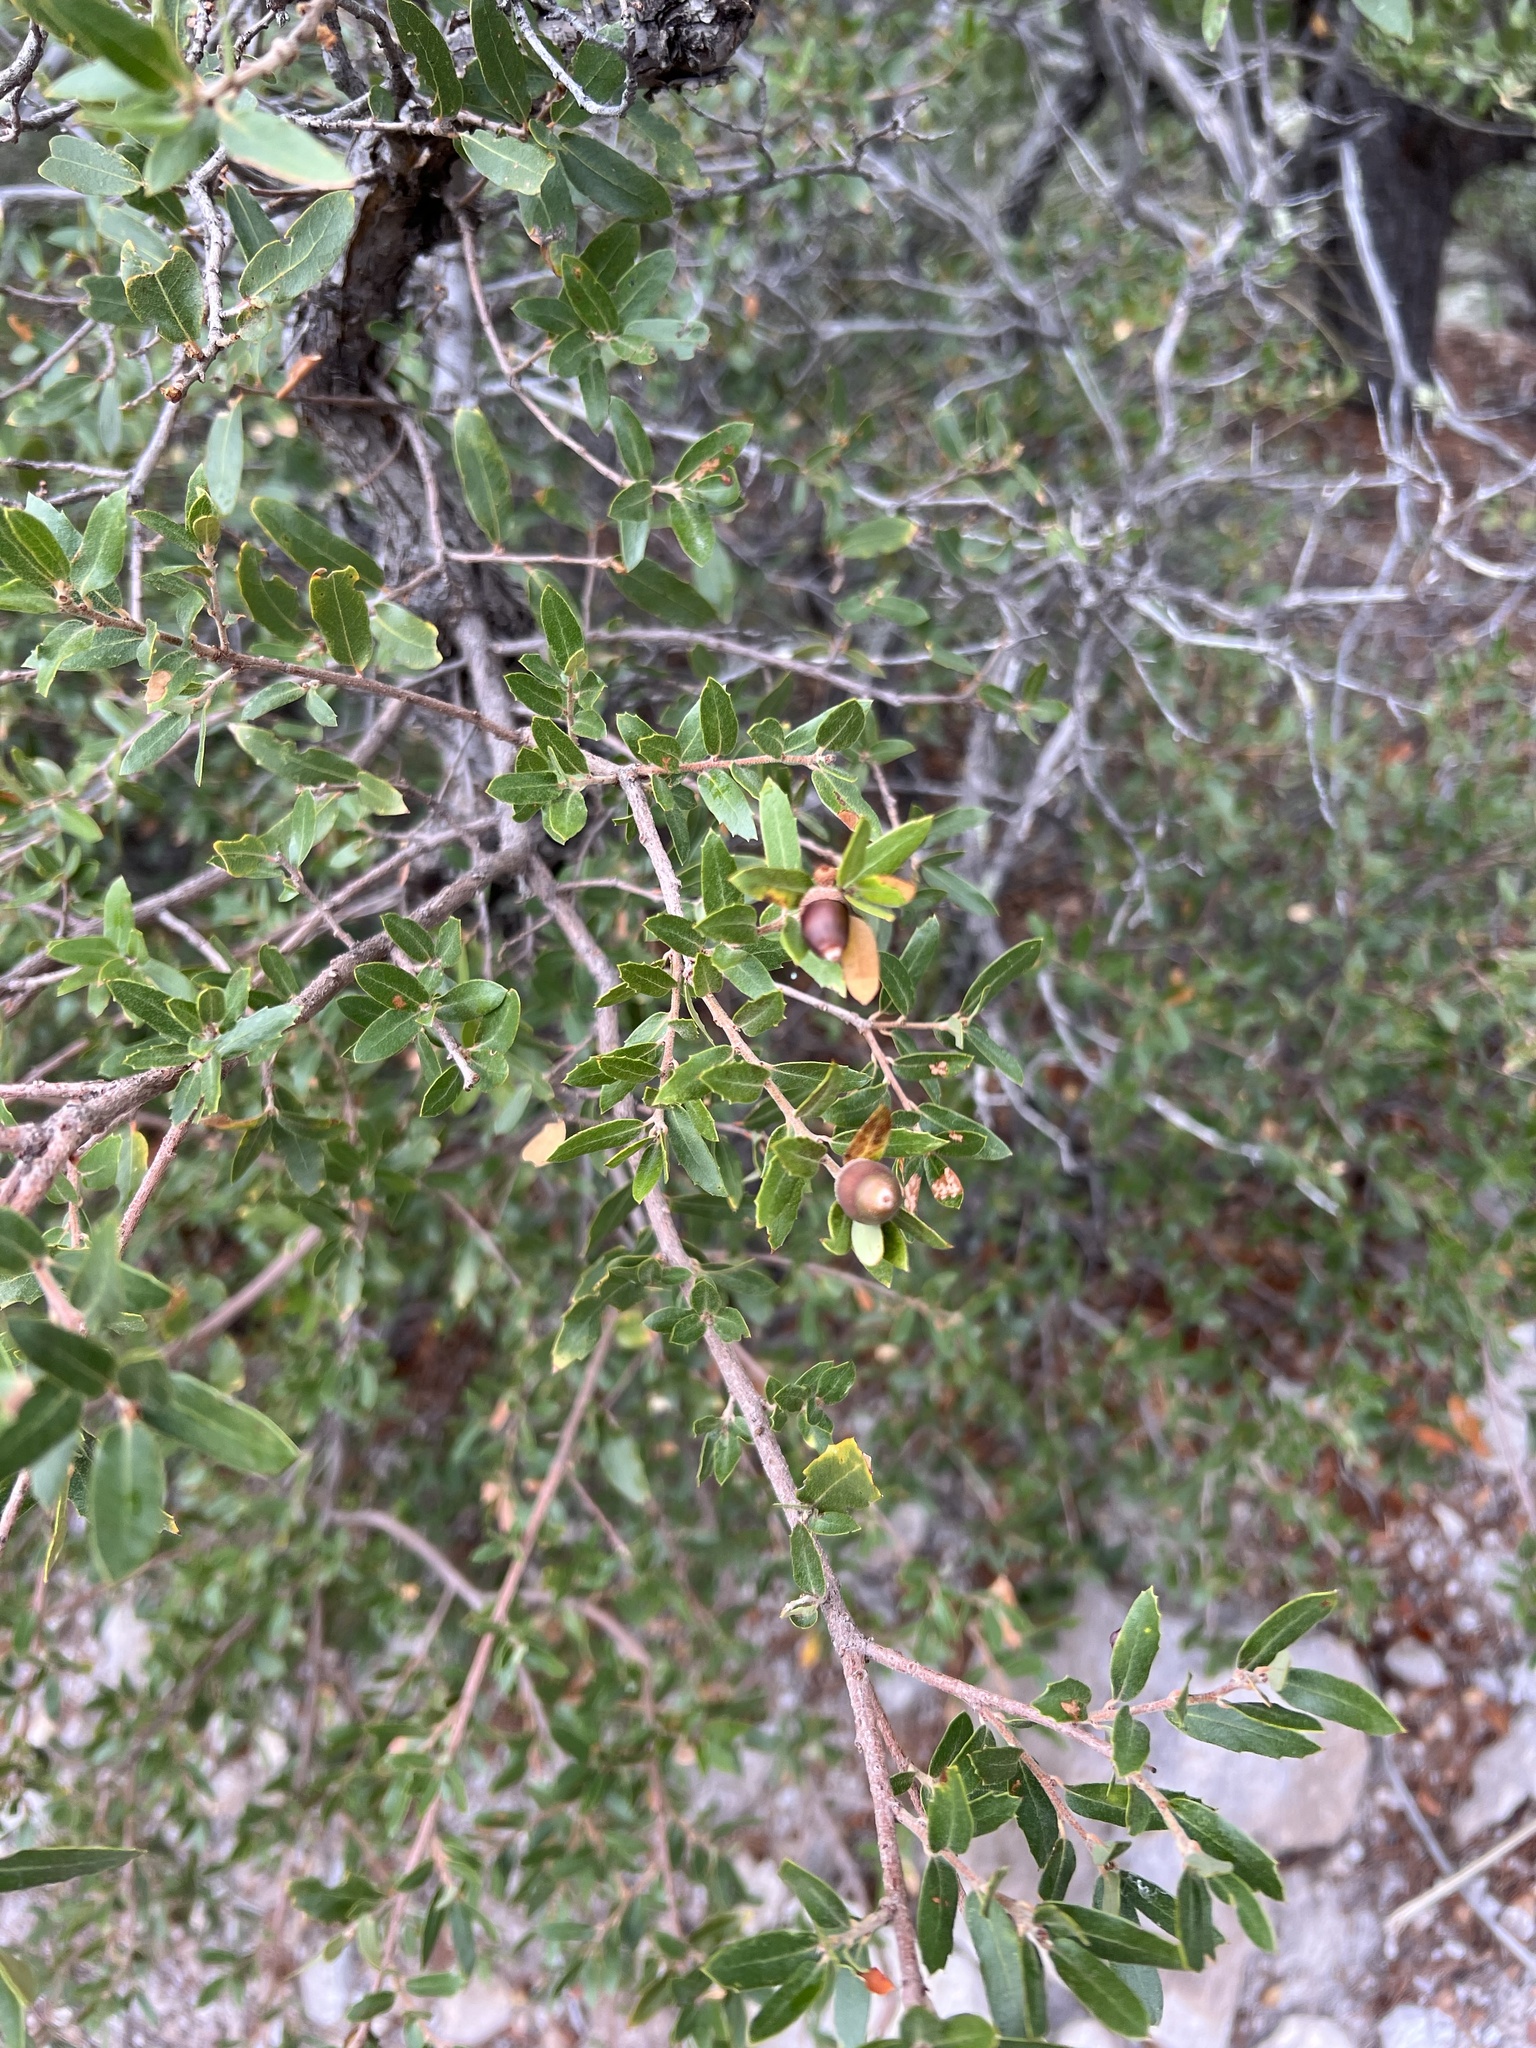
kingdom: Plantae
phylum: Tracheophyta
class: Magnoliopsida
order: Fagales
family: Fagaceae
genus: Quercus
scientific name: Quercus toumeyi
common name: Toumey oak
